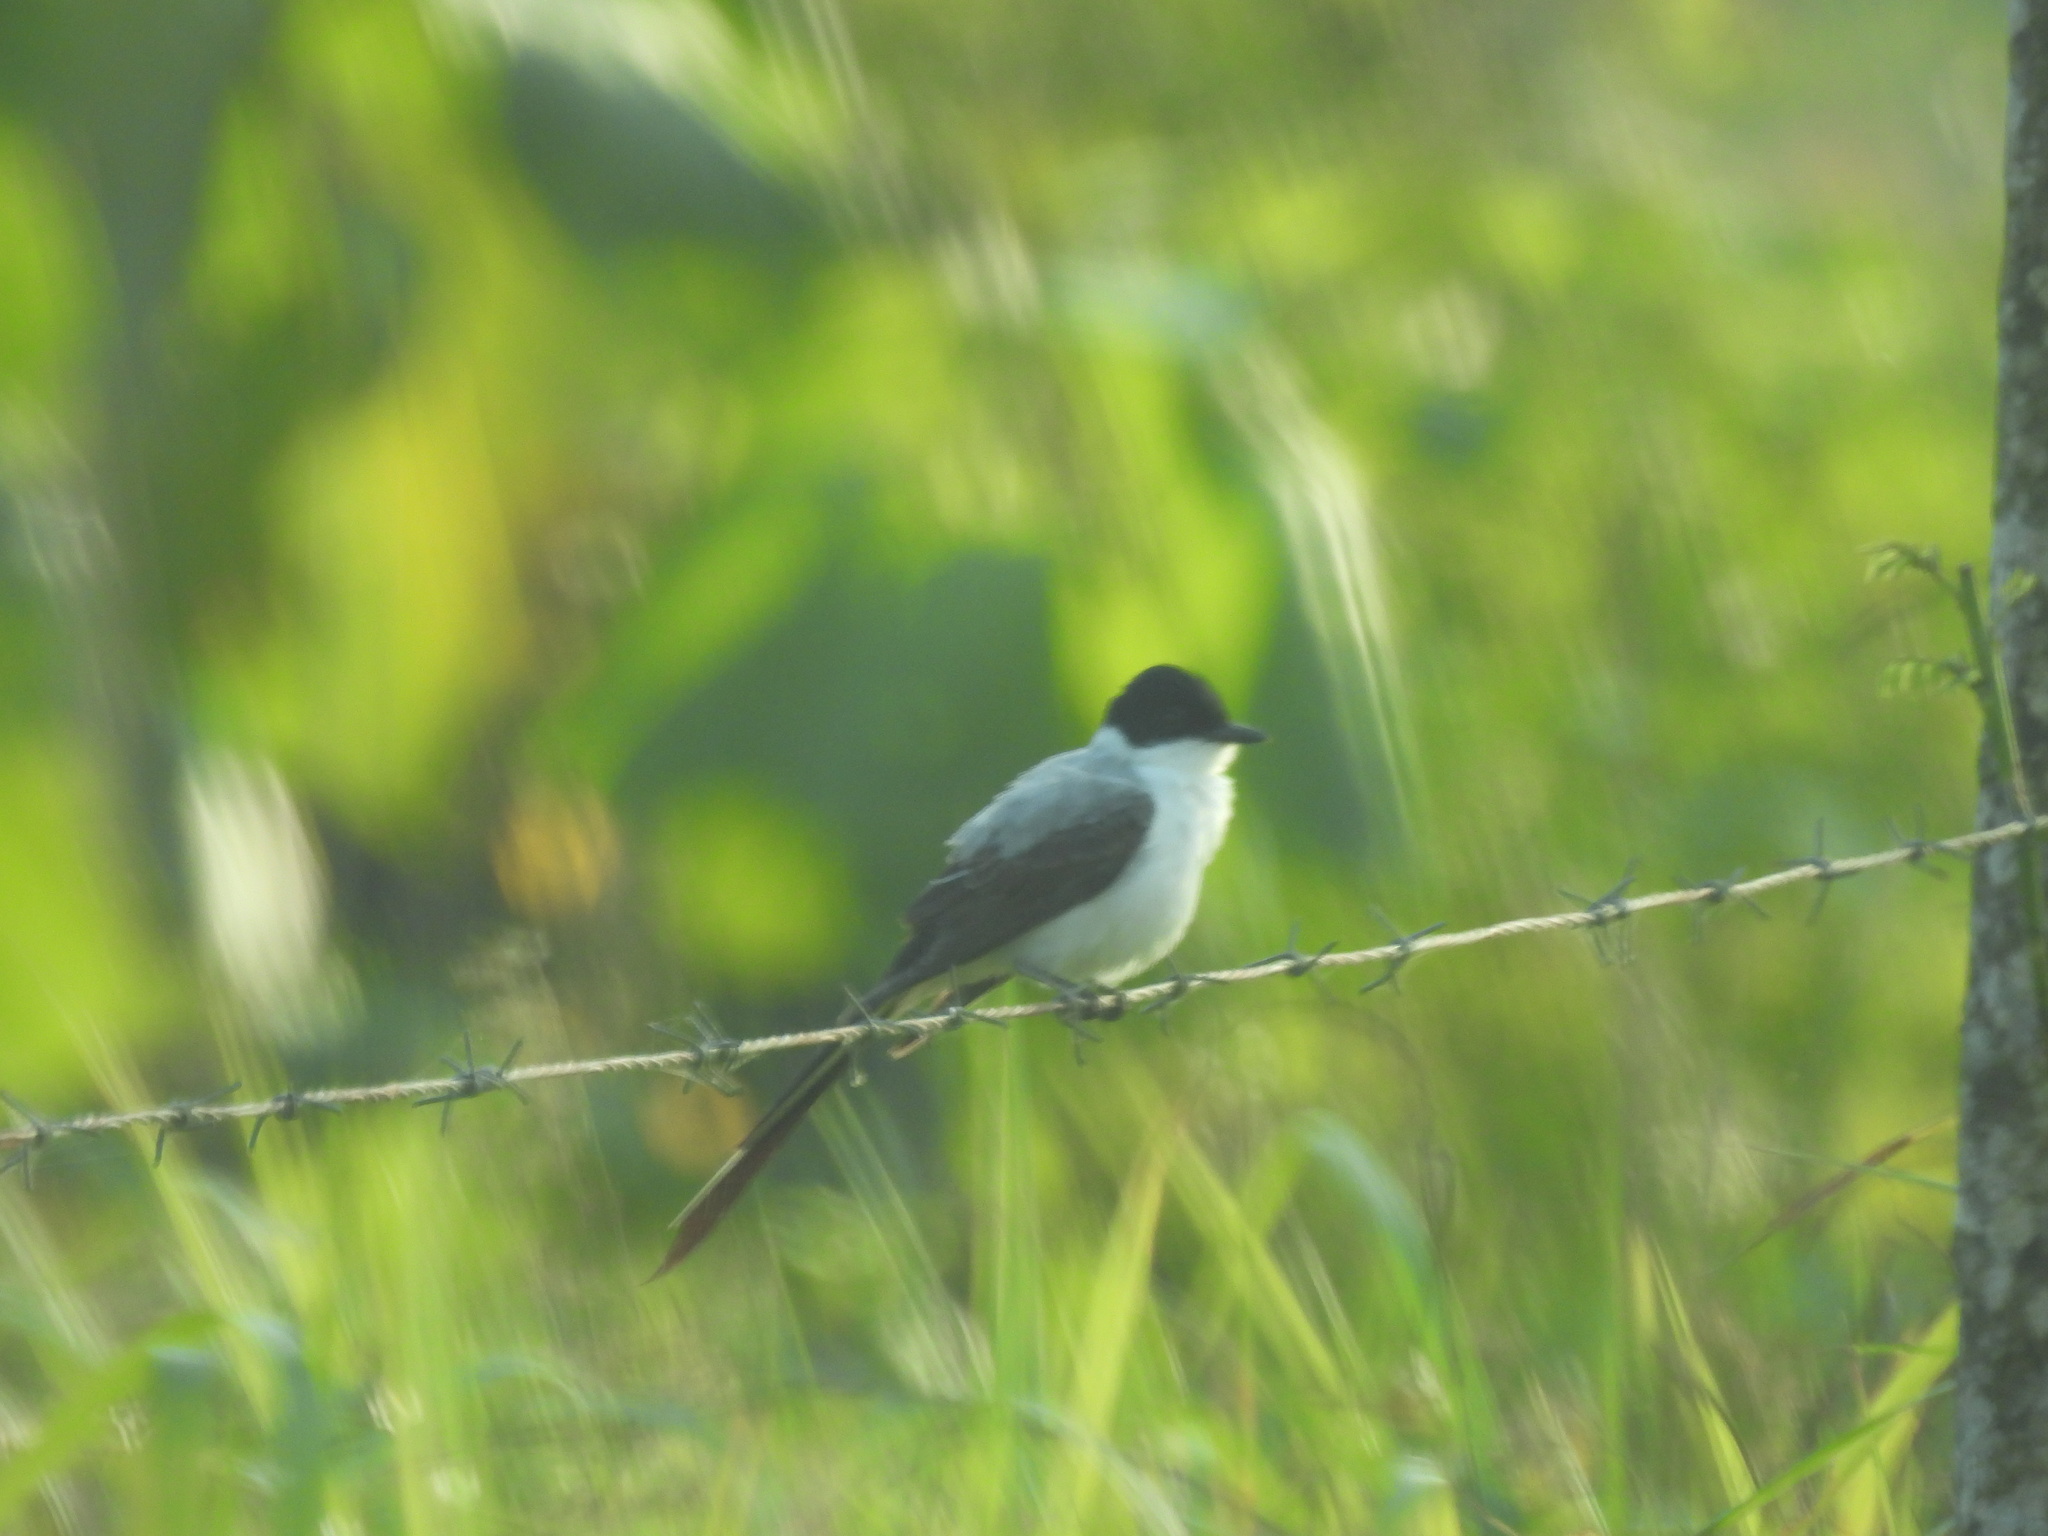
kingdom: Animalia
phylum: Chordata
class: Aves
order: Passeriformes
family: Tyrannidae
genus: Tyrannus
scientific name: Tyrannus savana
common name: Fork-tailed flycatcher
